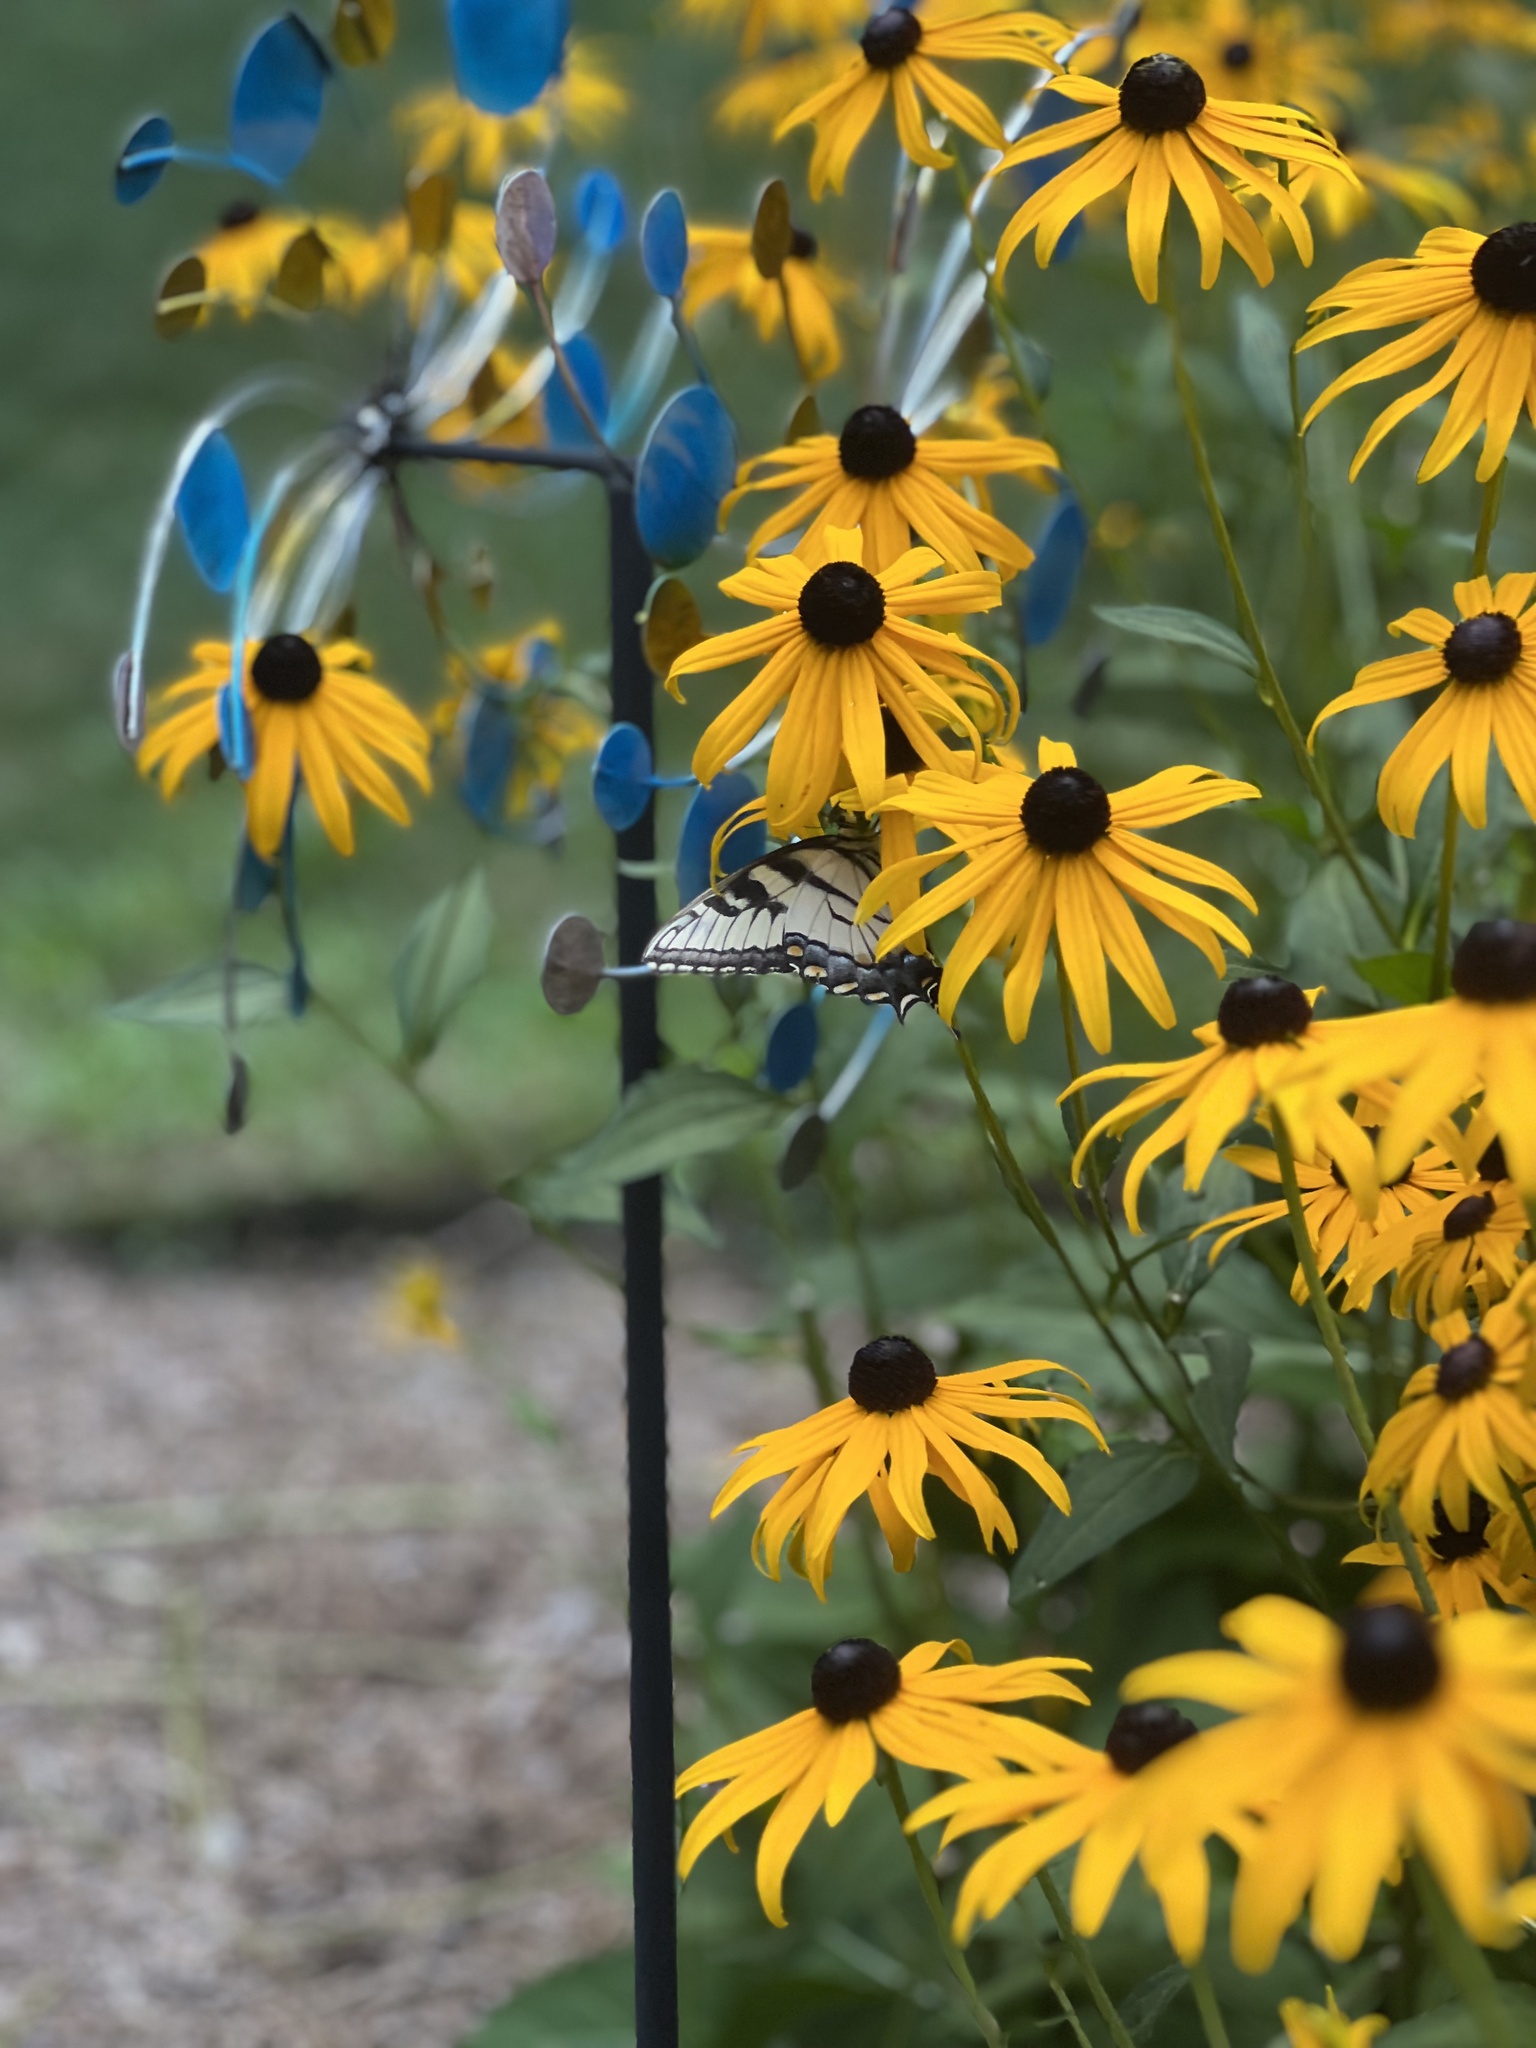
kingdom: Animalia
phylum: Arthropoda
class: Insecta
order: Lepidoptera
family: Papilionidae
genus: Papilio
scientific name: Papilio glaucus
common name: Tiger swallowtail
